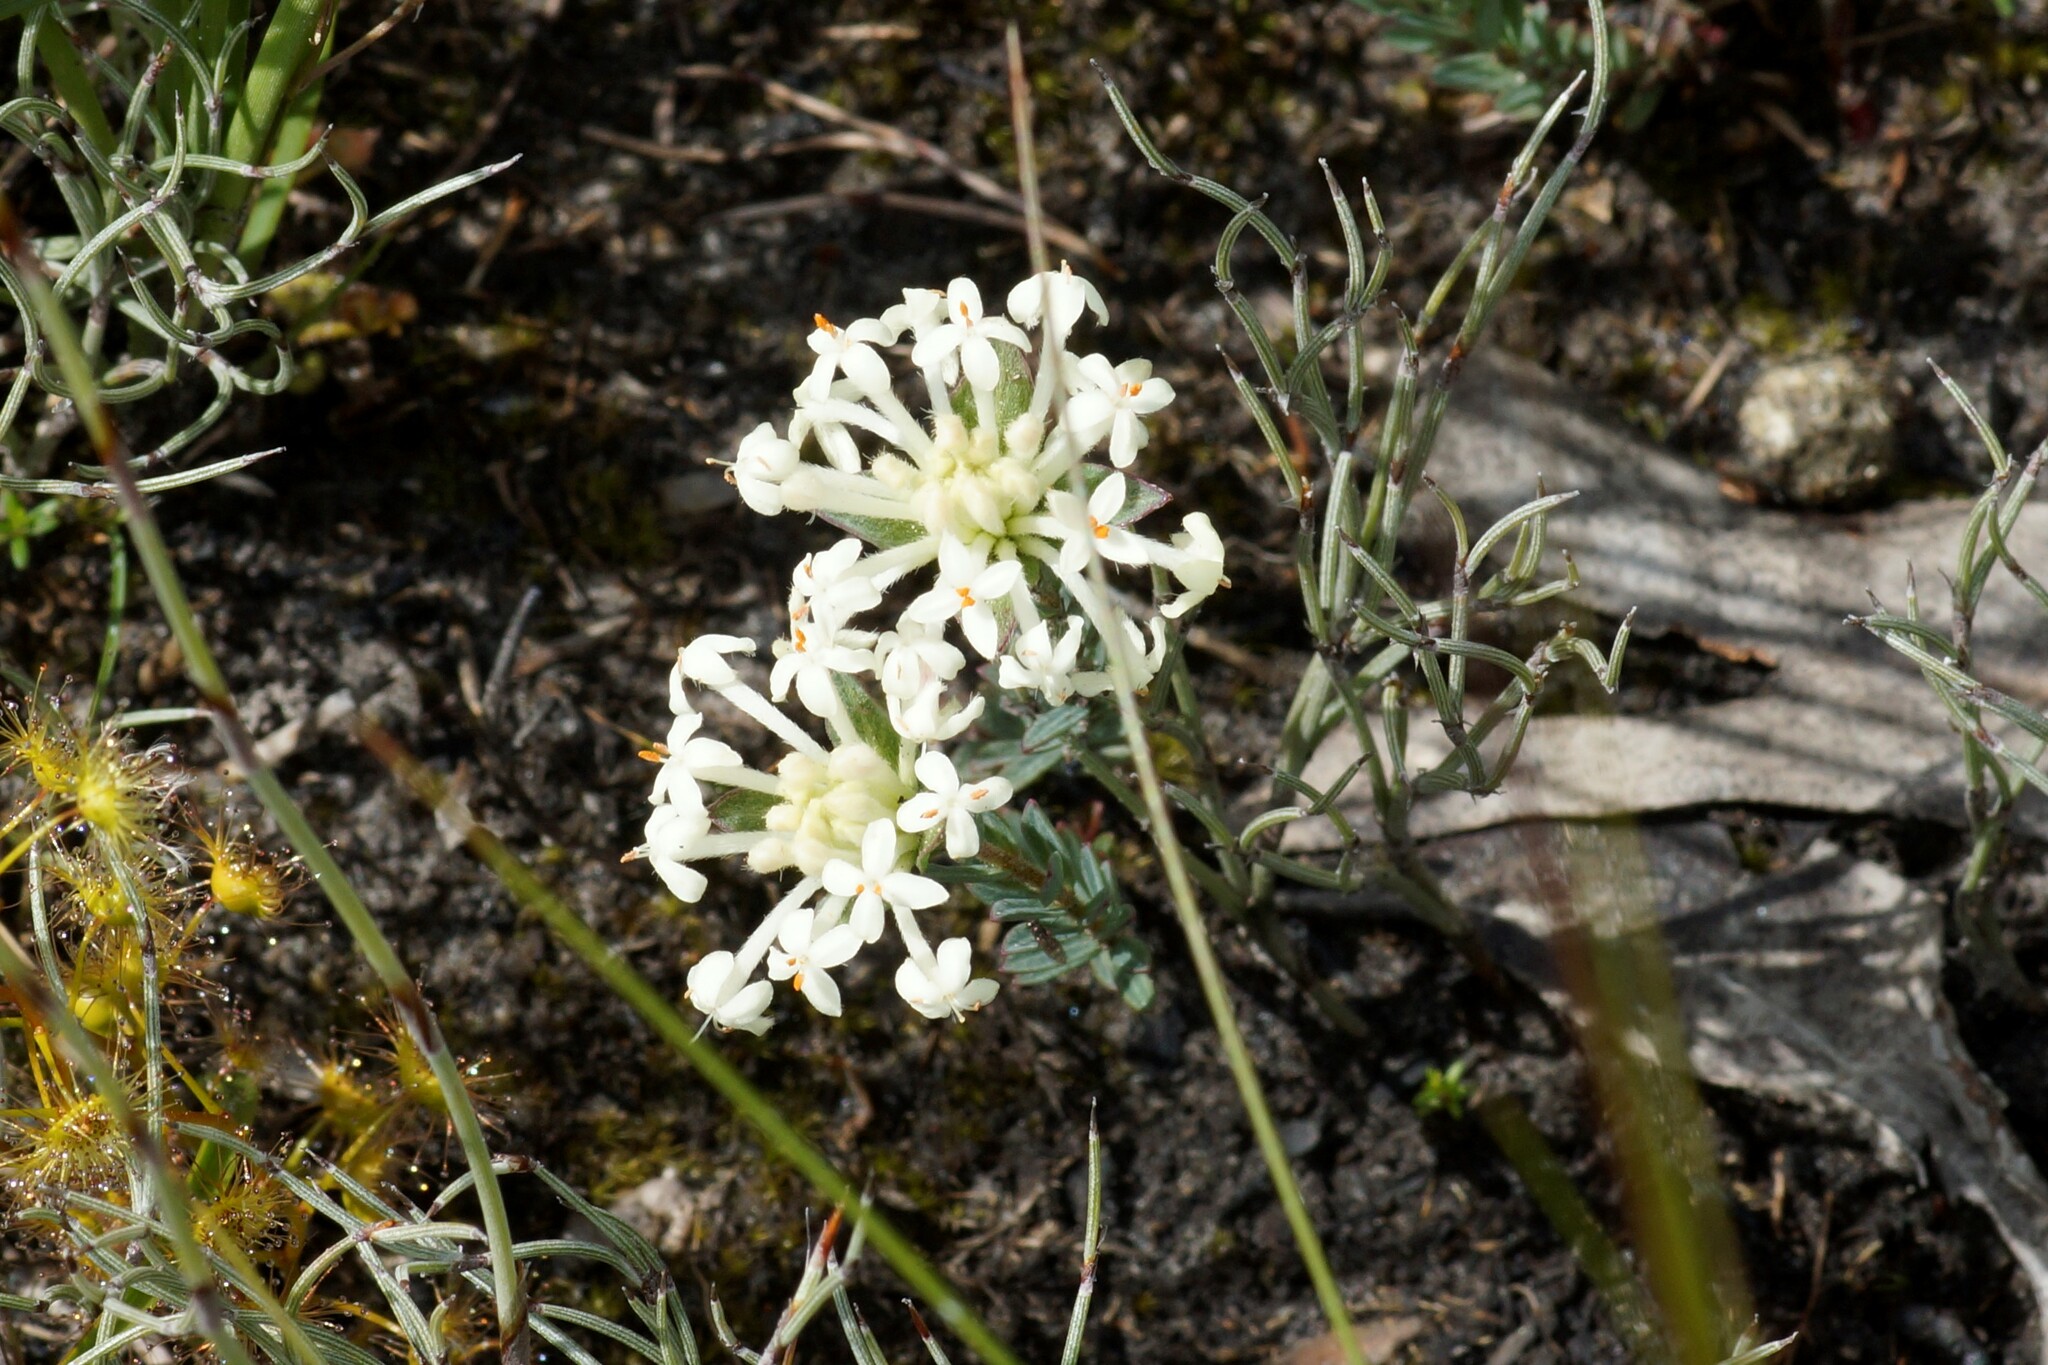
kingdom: Plantae
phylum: Tracheophyta
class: Magnoliopsida
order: Malvales
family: Thymelaeaceae
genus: Pimelea
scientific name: Pimelea humilis
